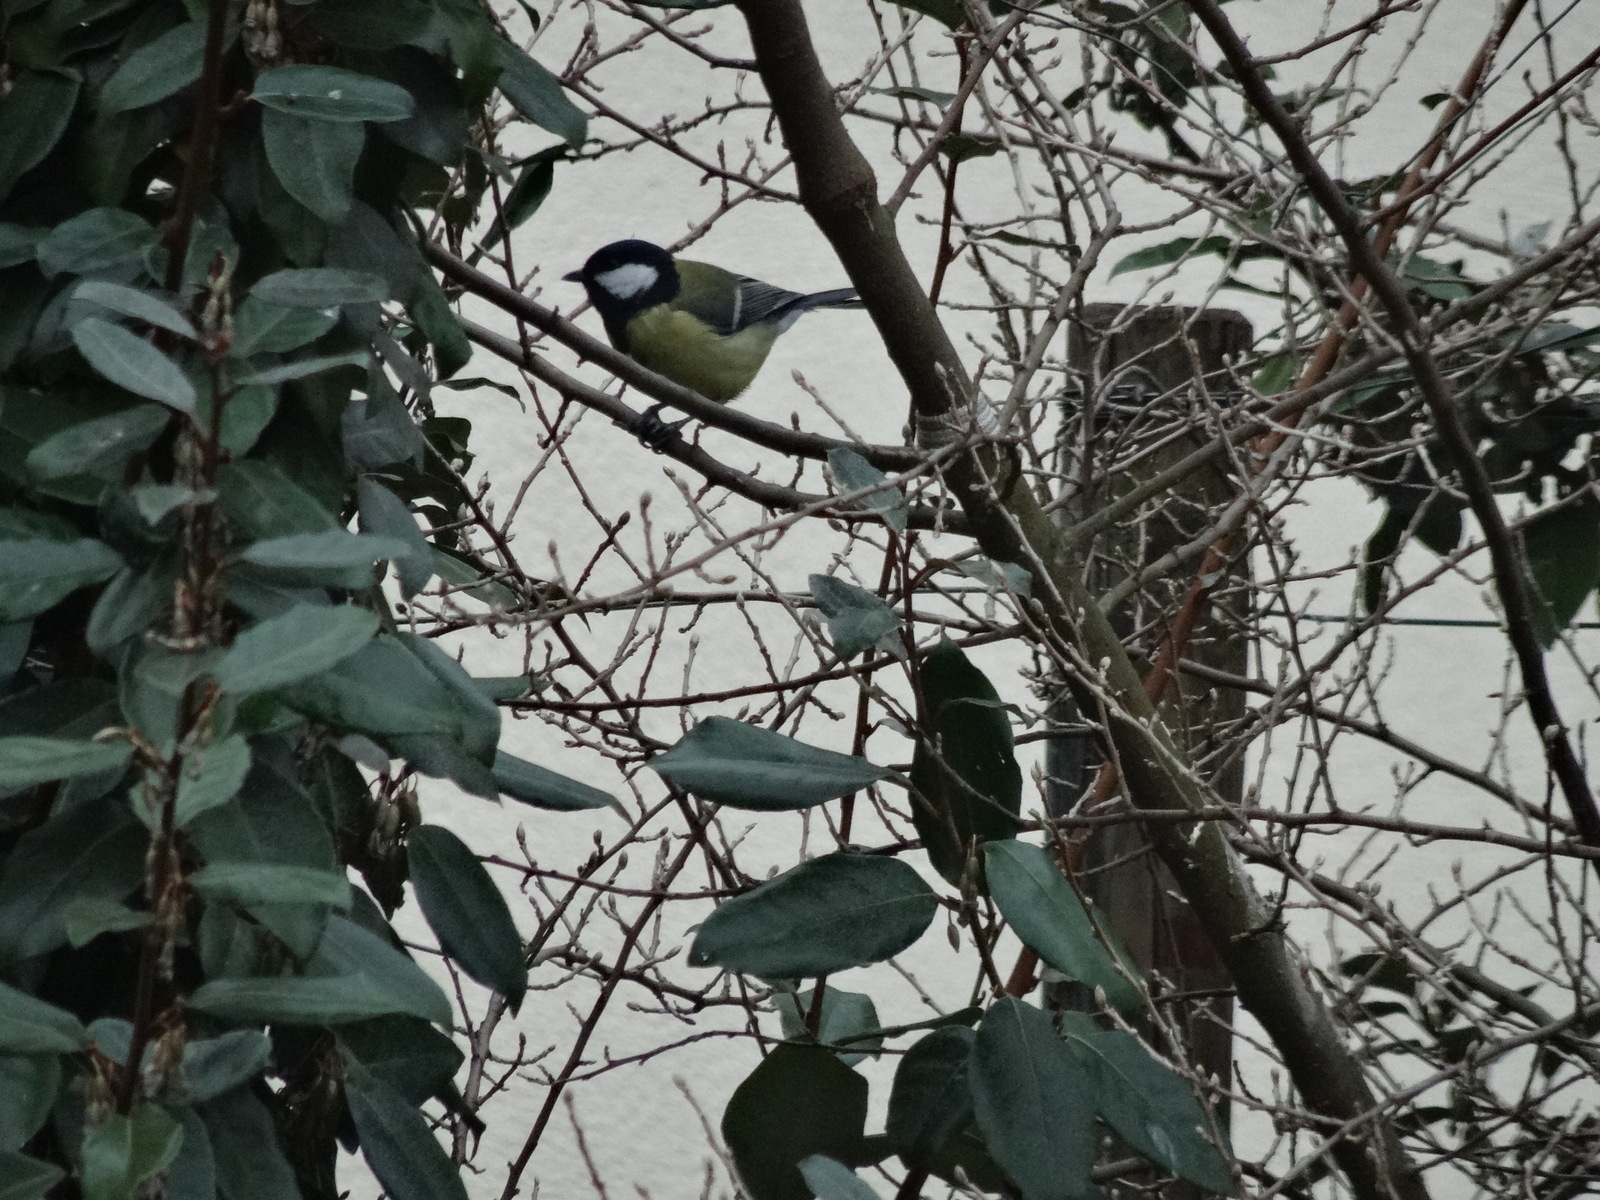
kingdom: Animalia
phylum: Chordata
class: Aves
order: Passeriformes
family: Paridae
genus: Parus
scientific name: Parus major
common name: Great tit
